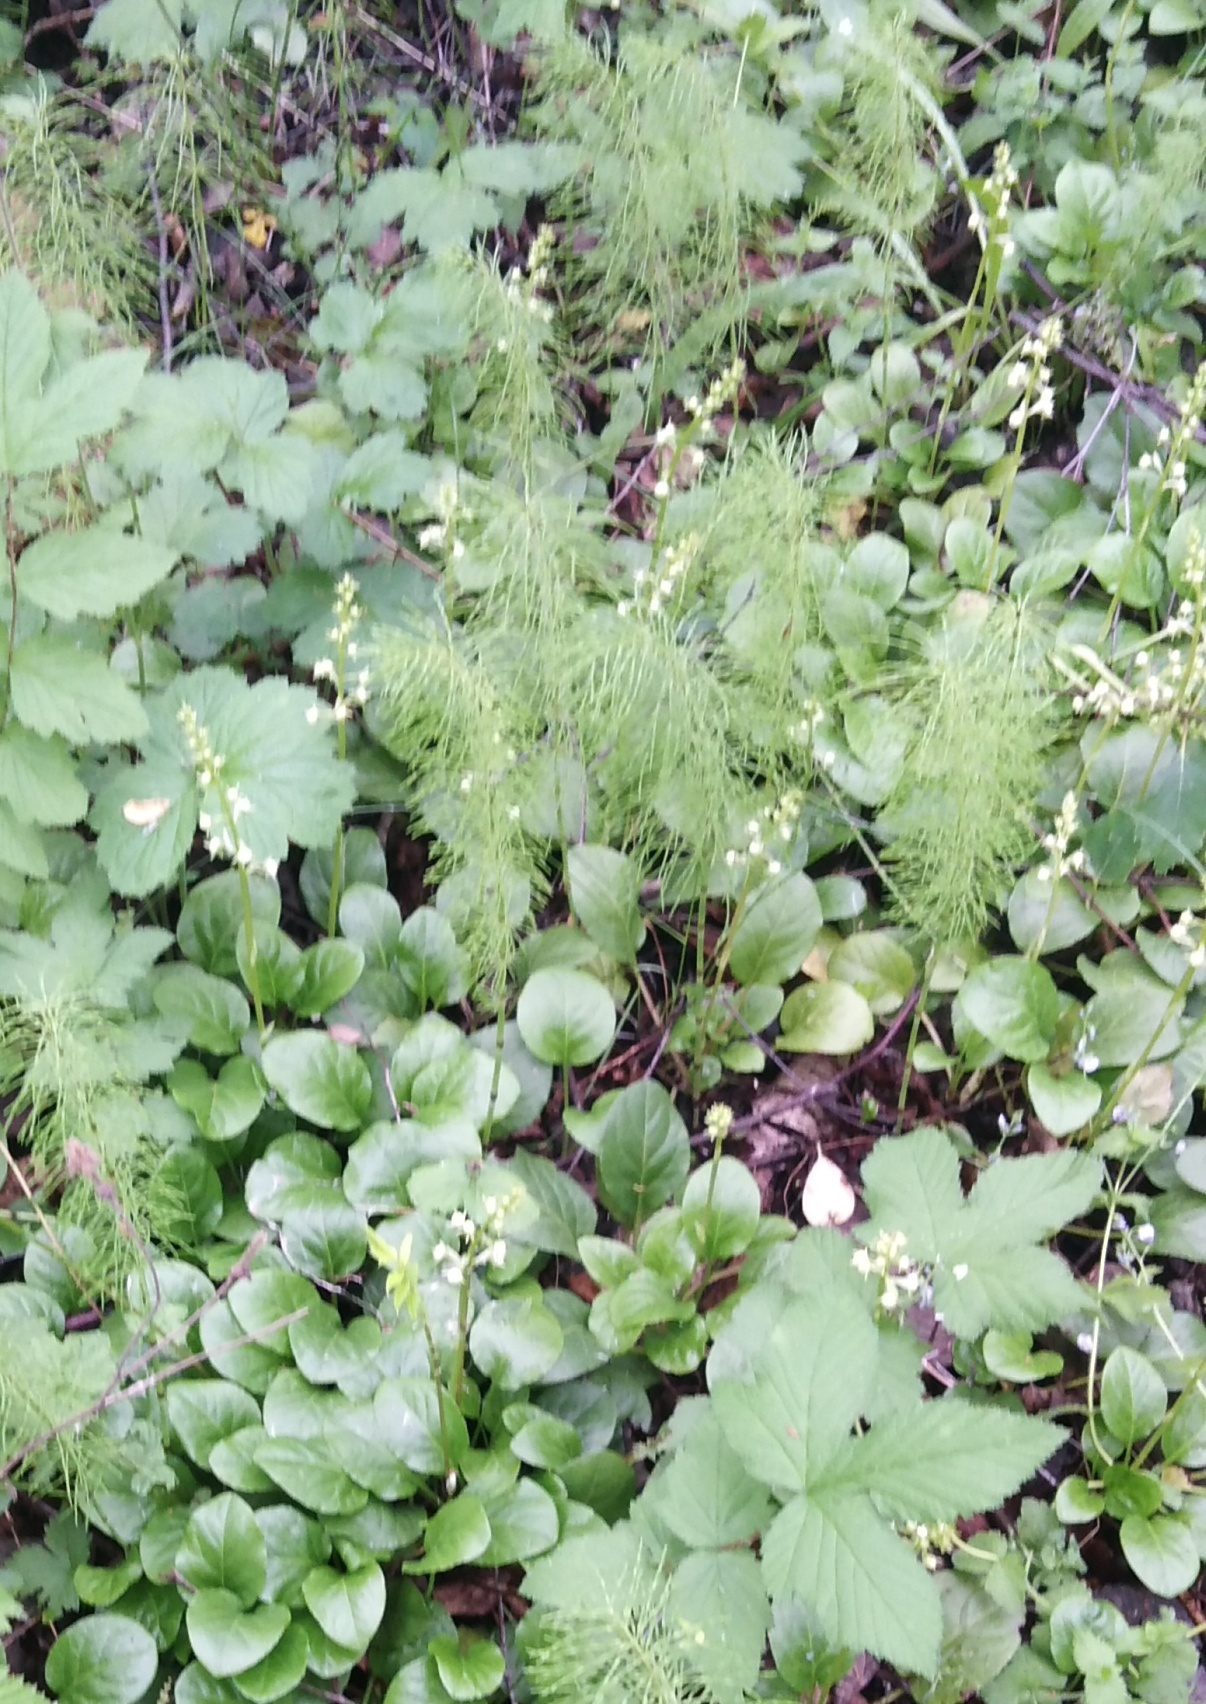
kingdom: Plantae
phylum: Tracheophyta
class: Magnoliopsida
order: Ericales
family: Ericaceae
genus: Pyrola
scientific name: Pyrola rotundifolia
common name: Round-leaved wintergreen
